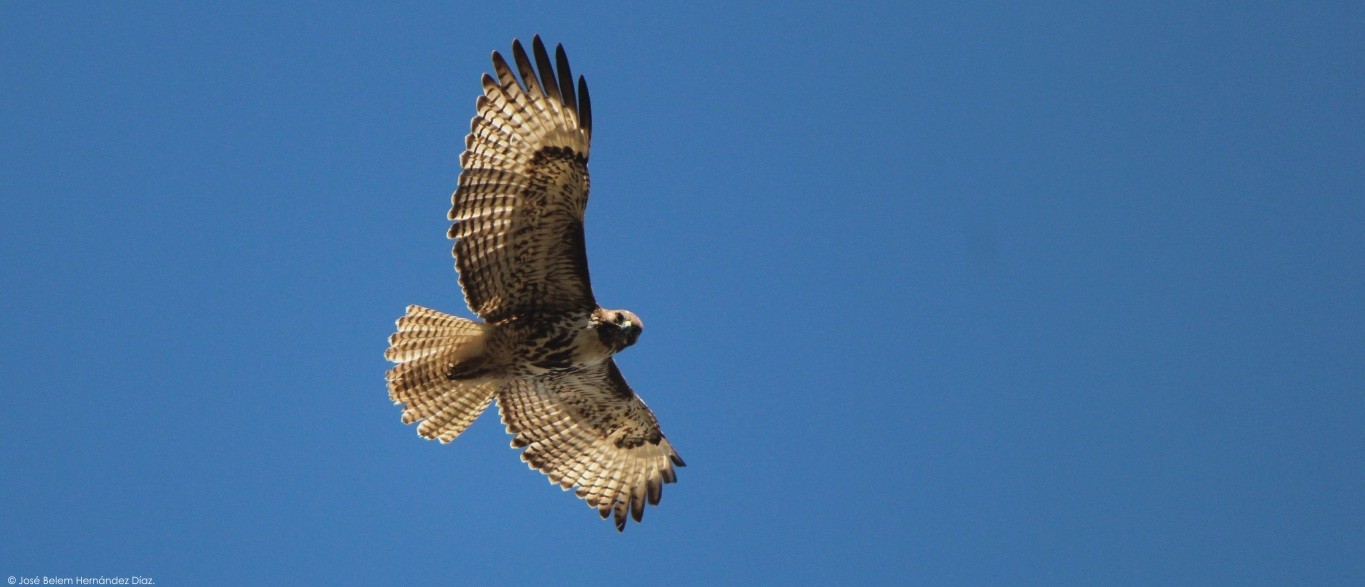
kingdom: Animalia
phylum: Chordata
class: Aves
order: Accipitriformes
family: Accipitridae
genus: Buteo
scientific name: Buteo jamaicensis
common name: Red-tailed hawk
